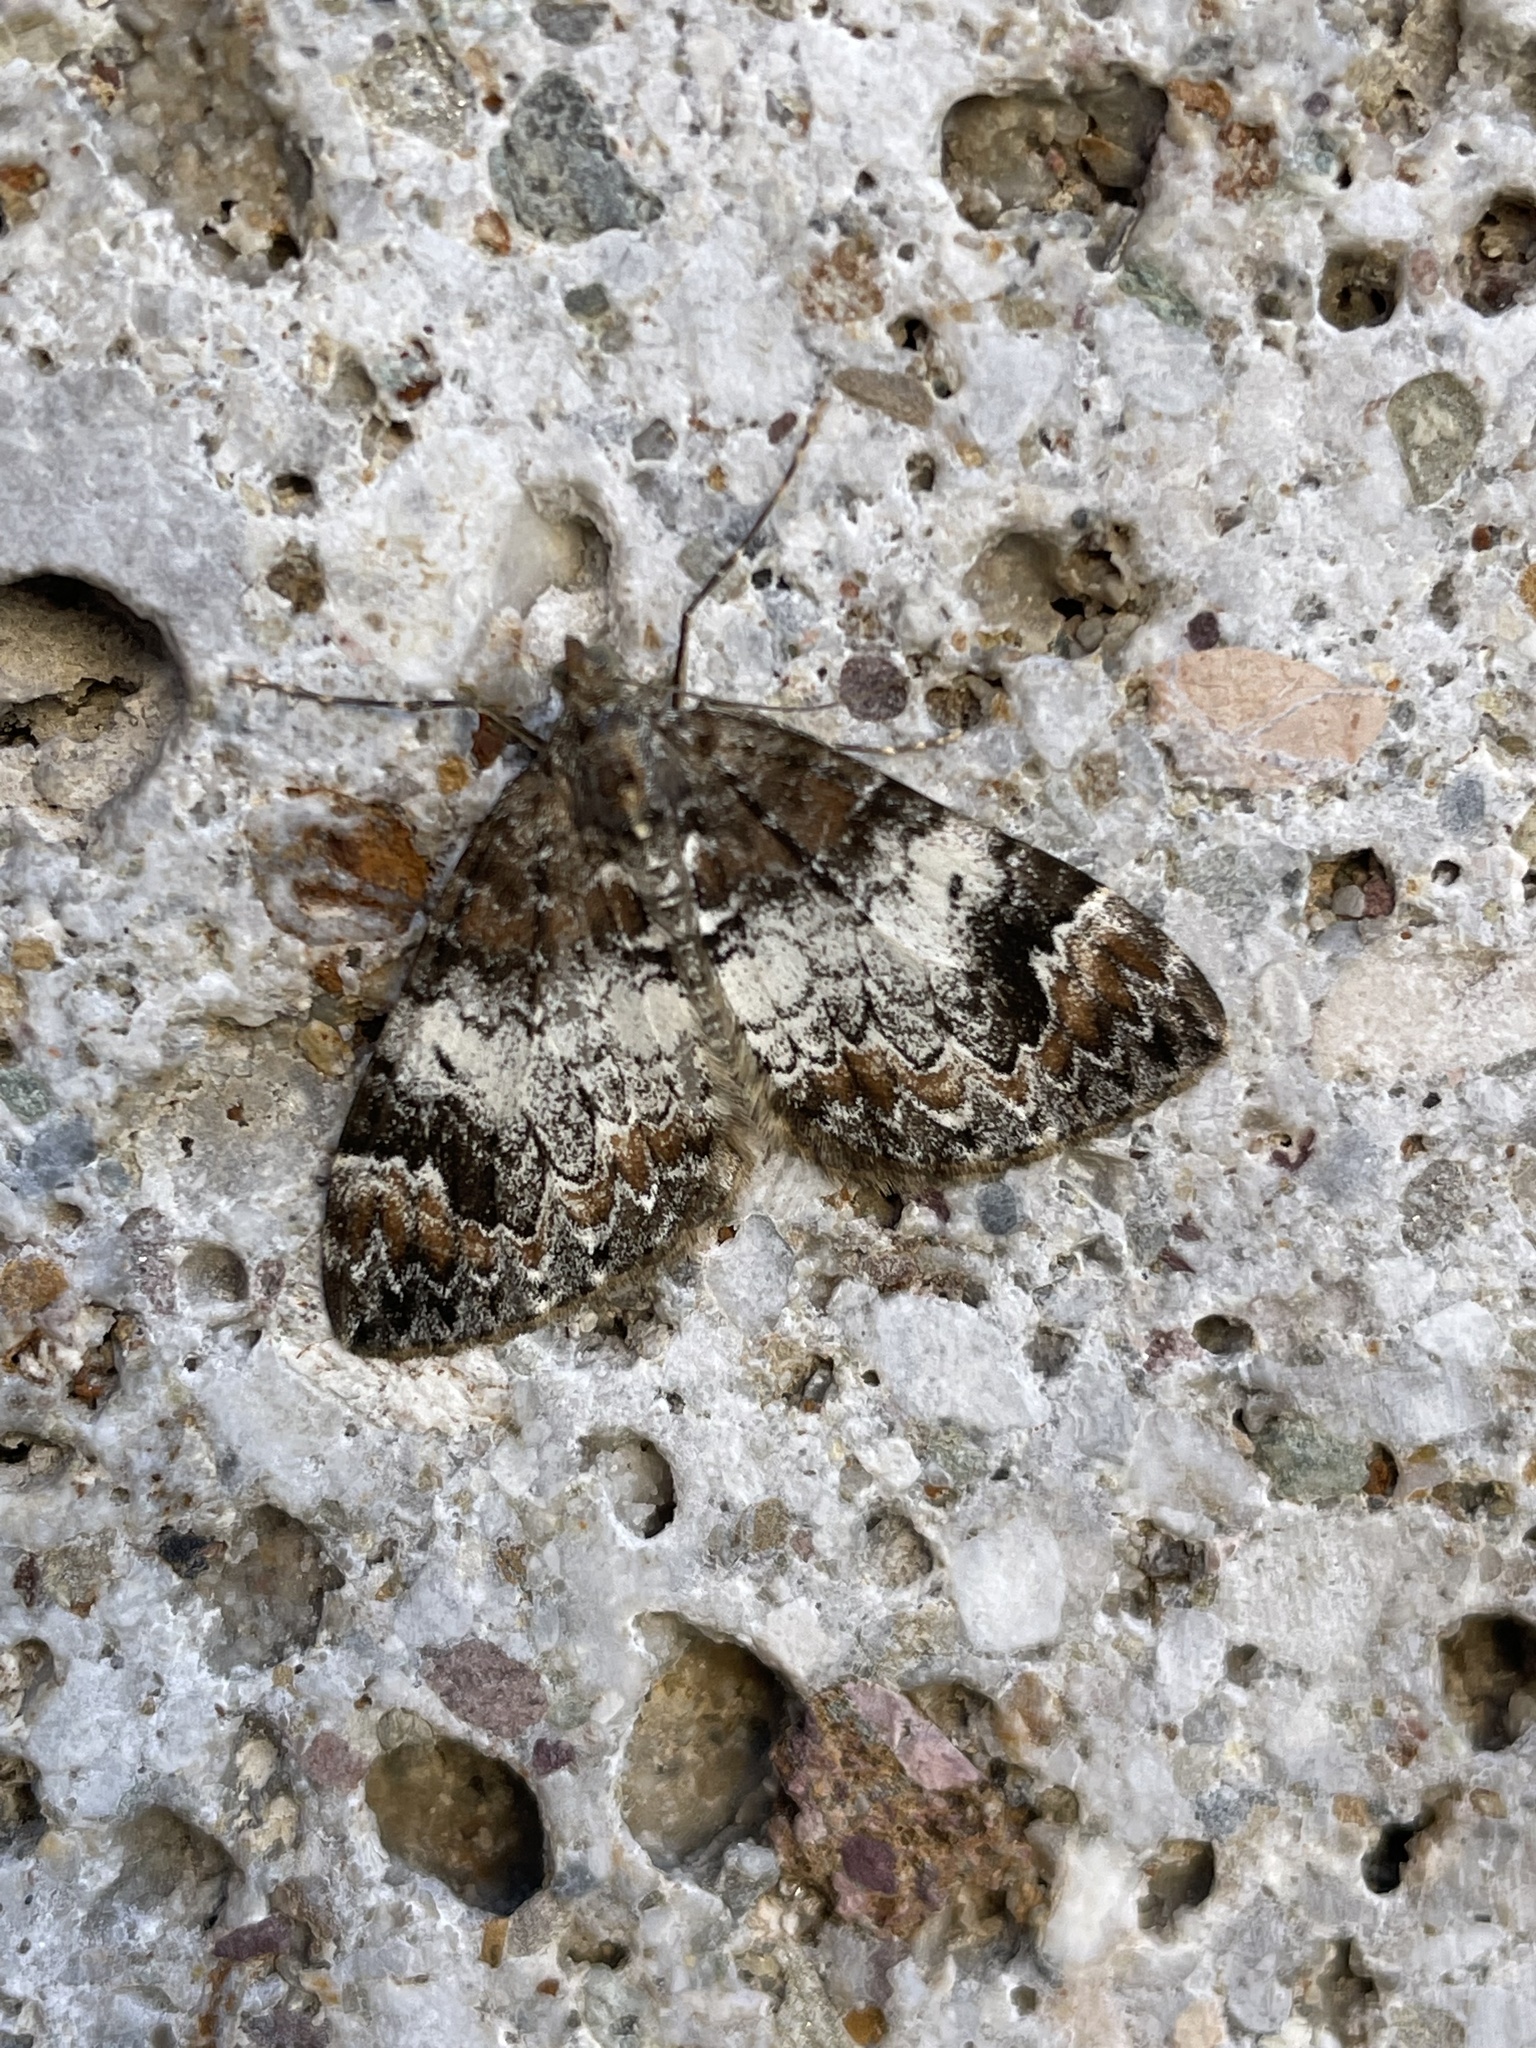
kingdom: Animalia
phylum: Arthropoda
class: Insecta
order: Lepidoptera
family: Geometridae
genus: Dysstroma
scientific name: Dysstroma truncata
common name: Common marbled carpet
